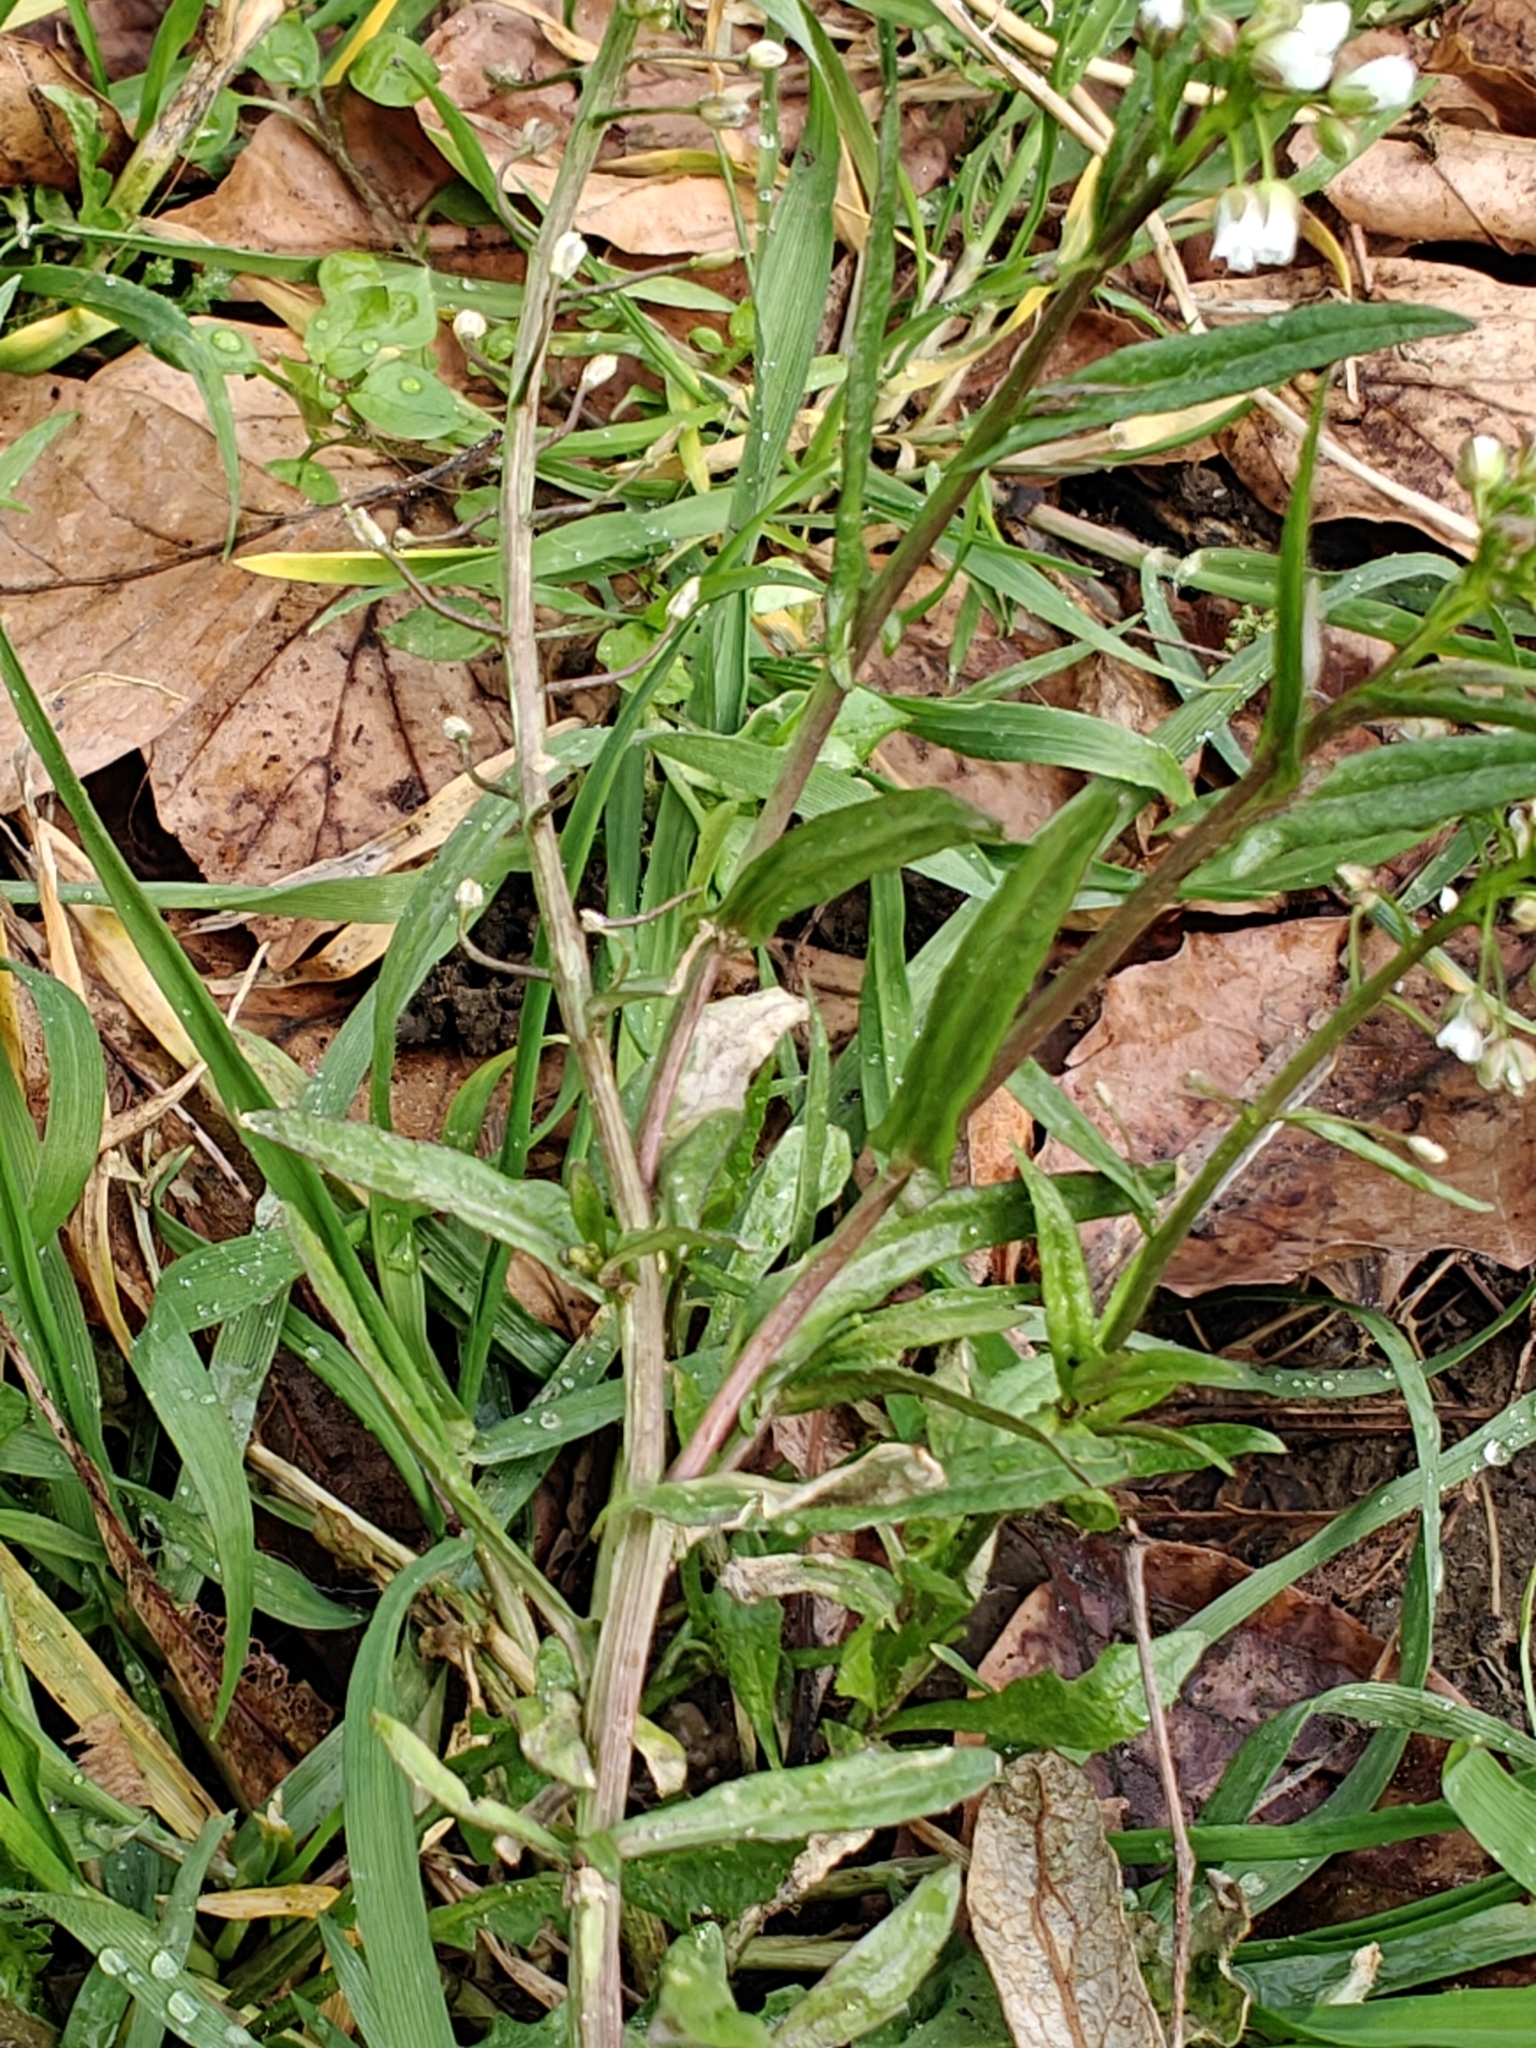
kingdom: Plantae
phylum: Tracheophyta
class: Magnoliopsida
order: Brassicales
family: Brassicaceae
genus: Capsella
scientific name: Capsella bursa-pastoris
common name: Shepherd's purse
